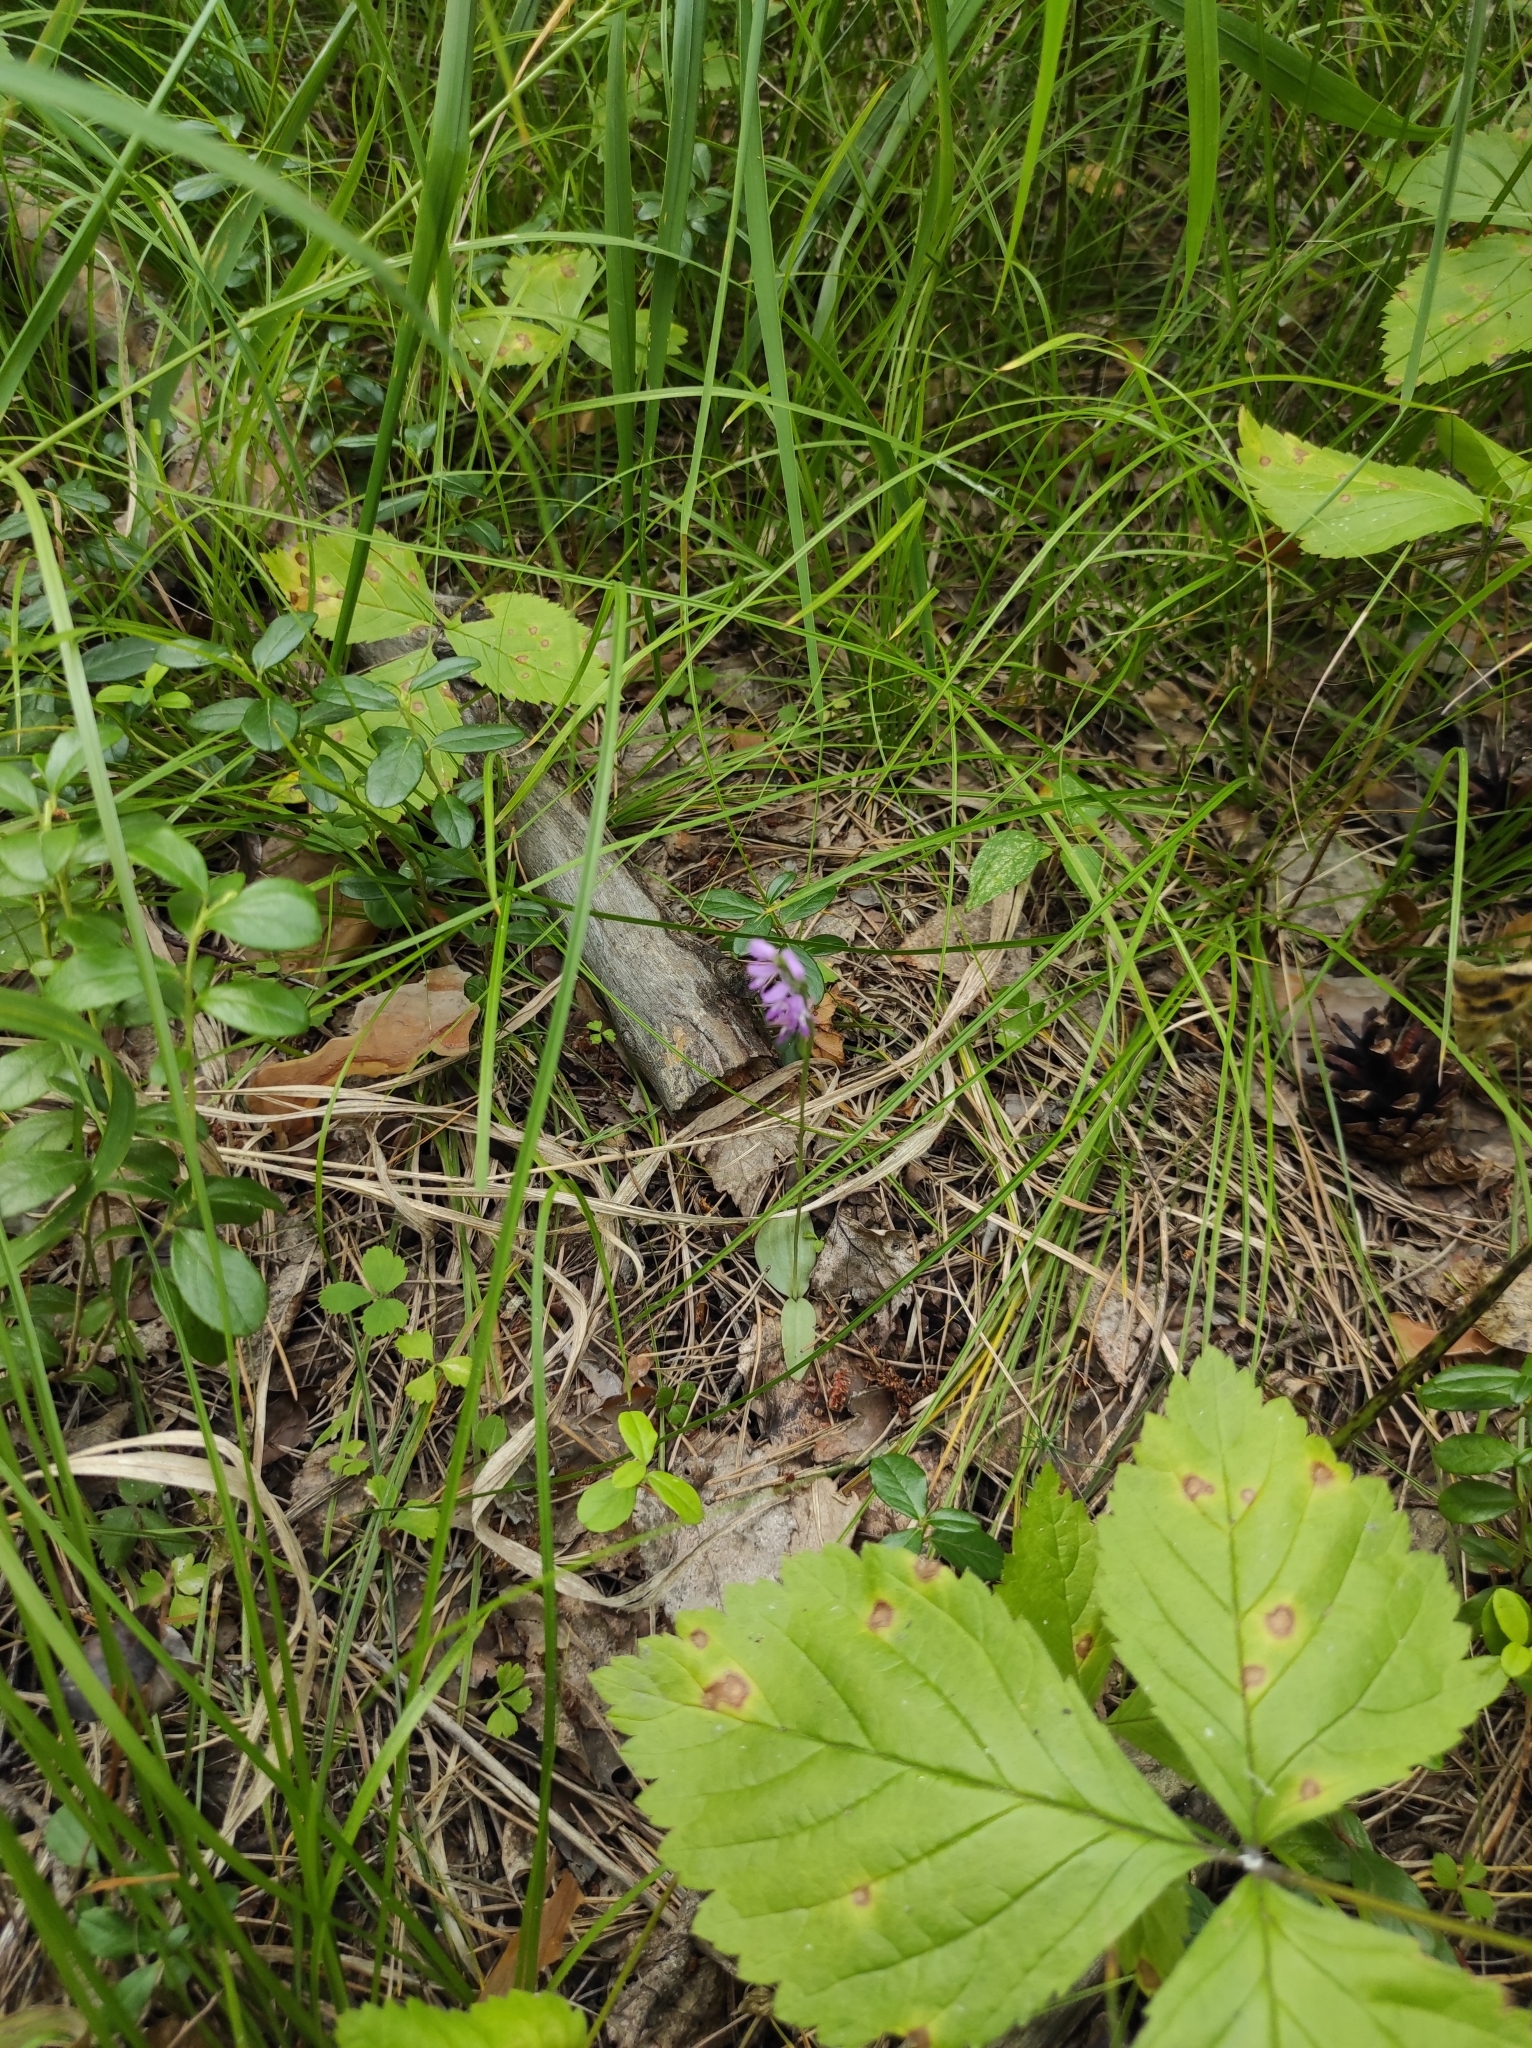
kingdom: Plantae
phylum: Tracheophyta
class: Liliopsida
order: Asparagales
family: Orchidaceae
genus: Hemipilia
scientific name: Hemipilia cucullata
